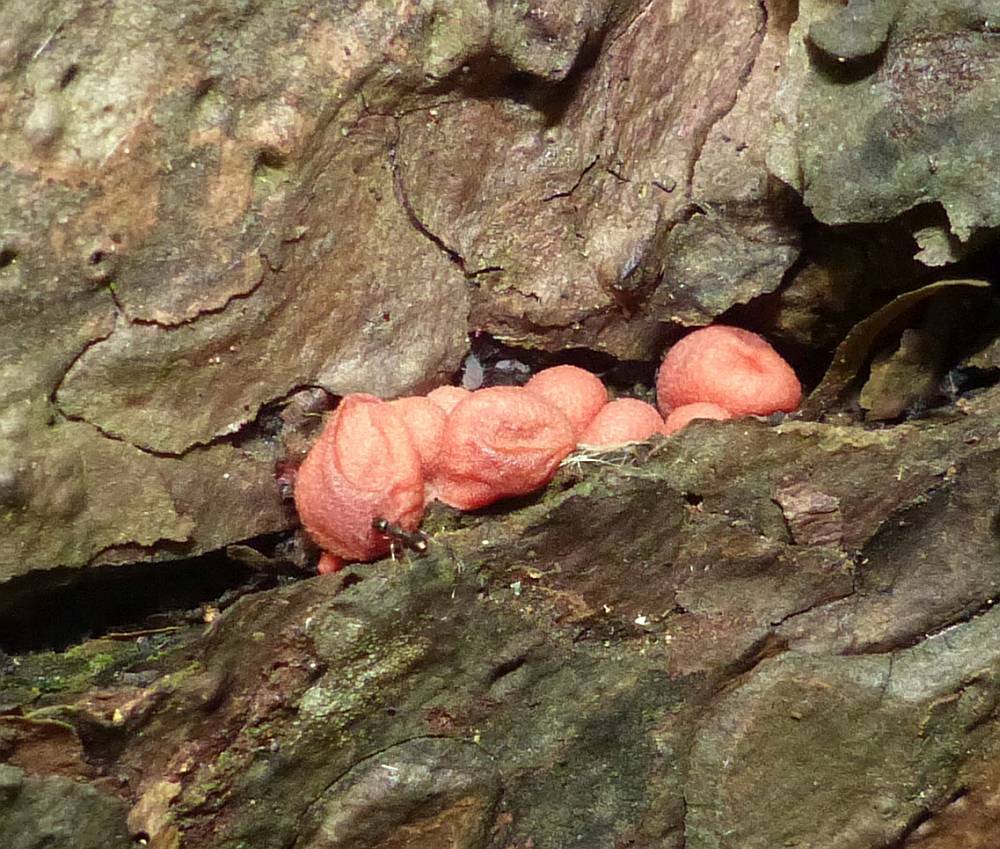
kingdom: Protozoa
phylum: Mycetozoa
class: Myxomycetes
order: Cribrariales
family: Tubiferaceae
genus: Lycogala
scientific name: Lycogala epidendrum
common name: Wolf's milk
